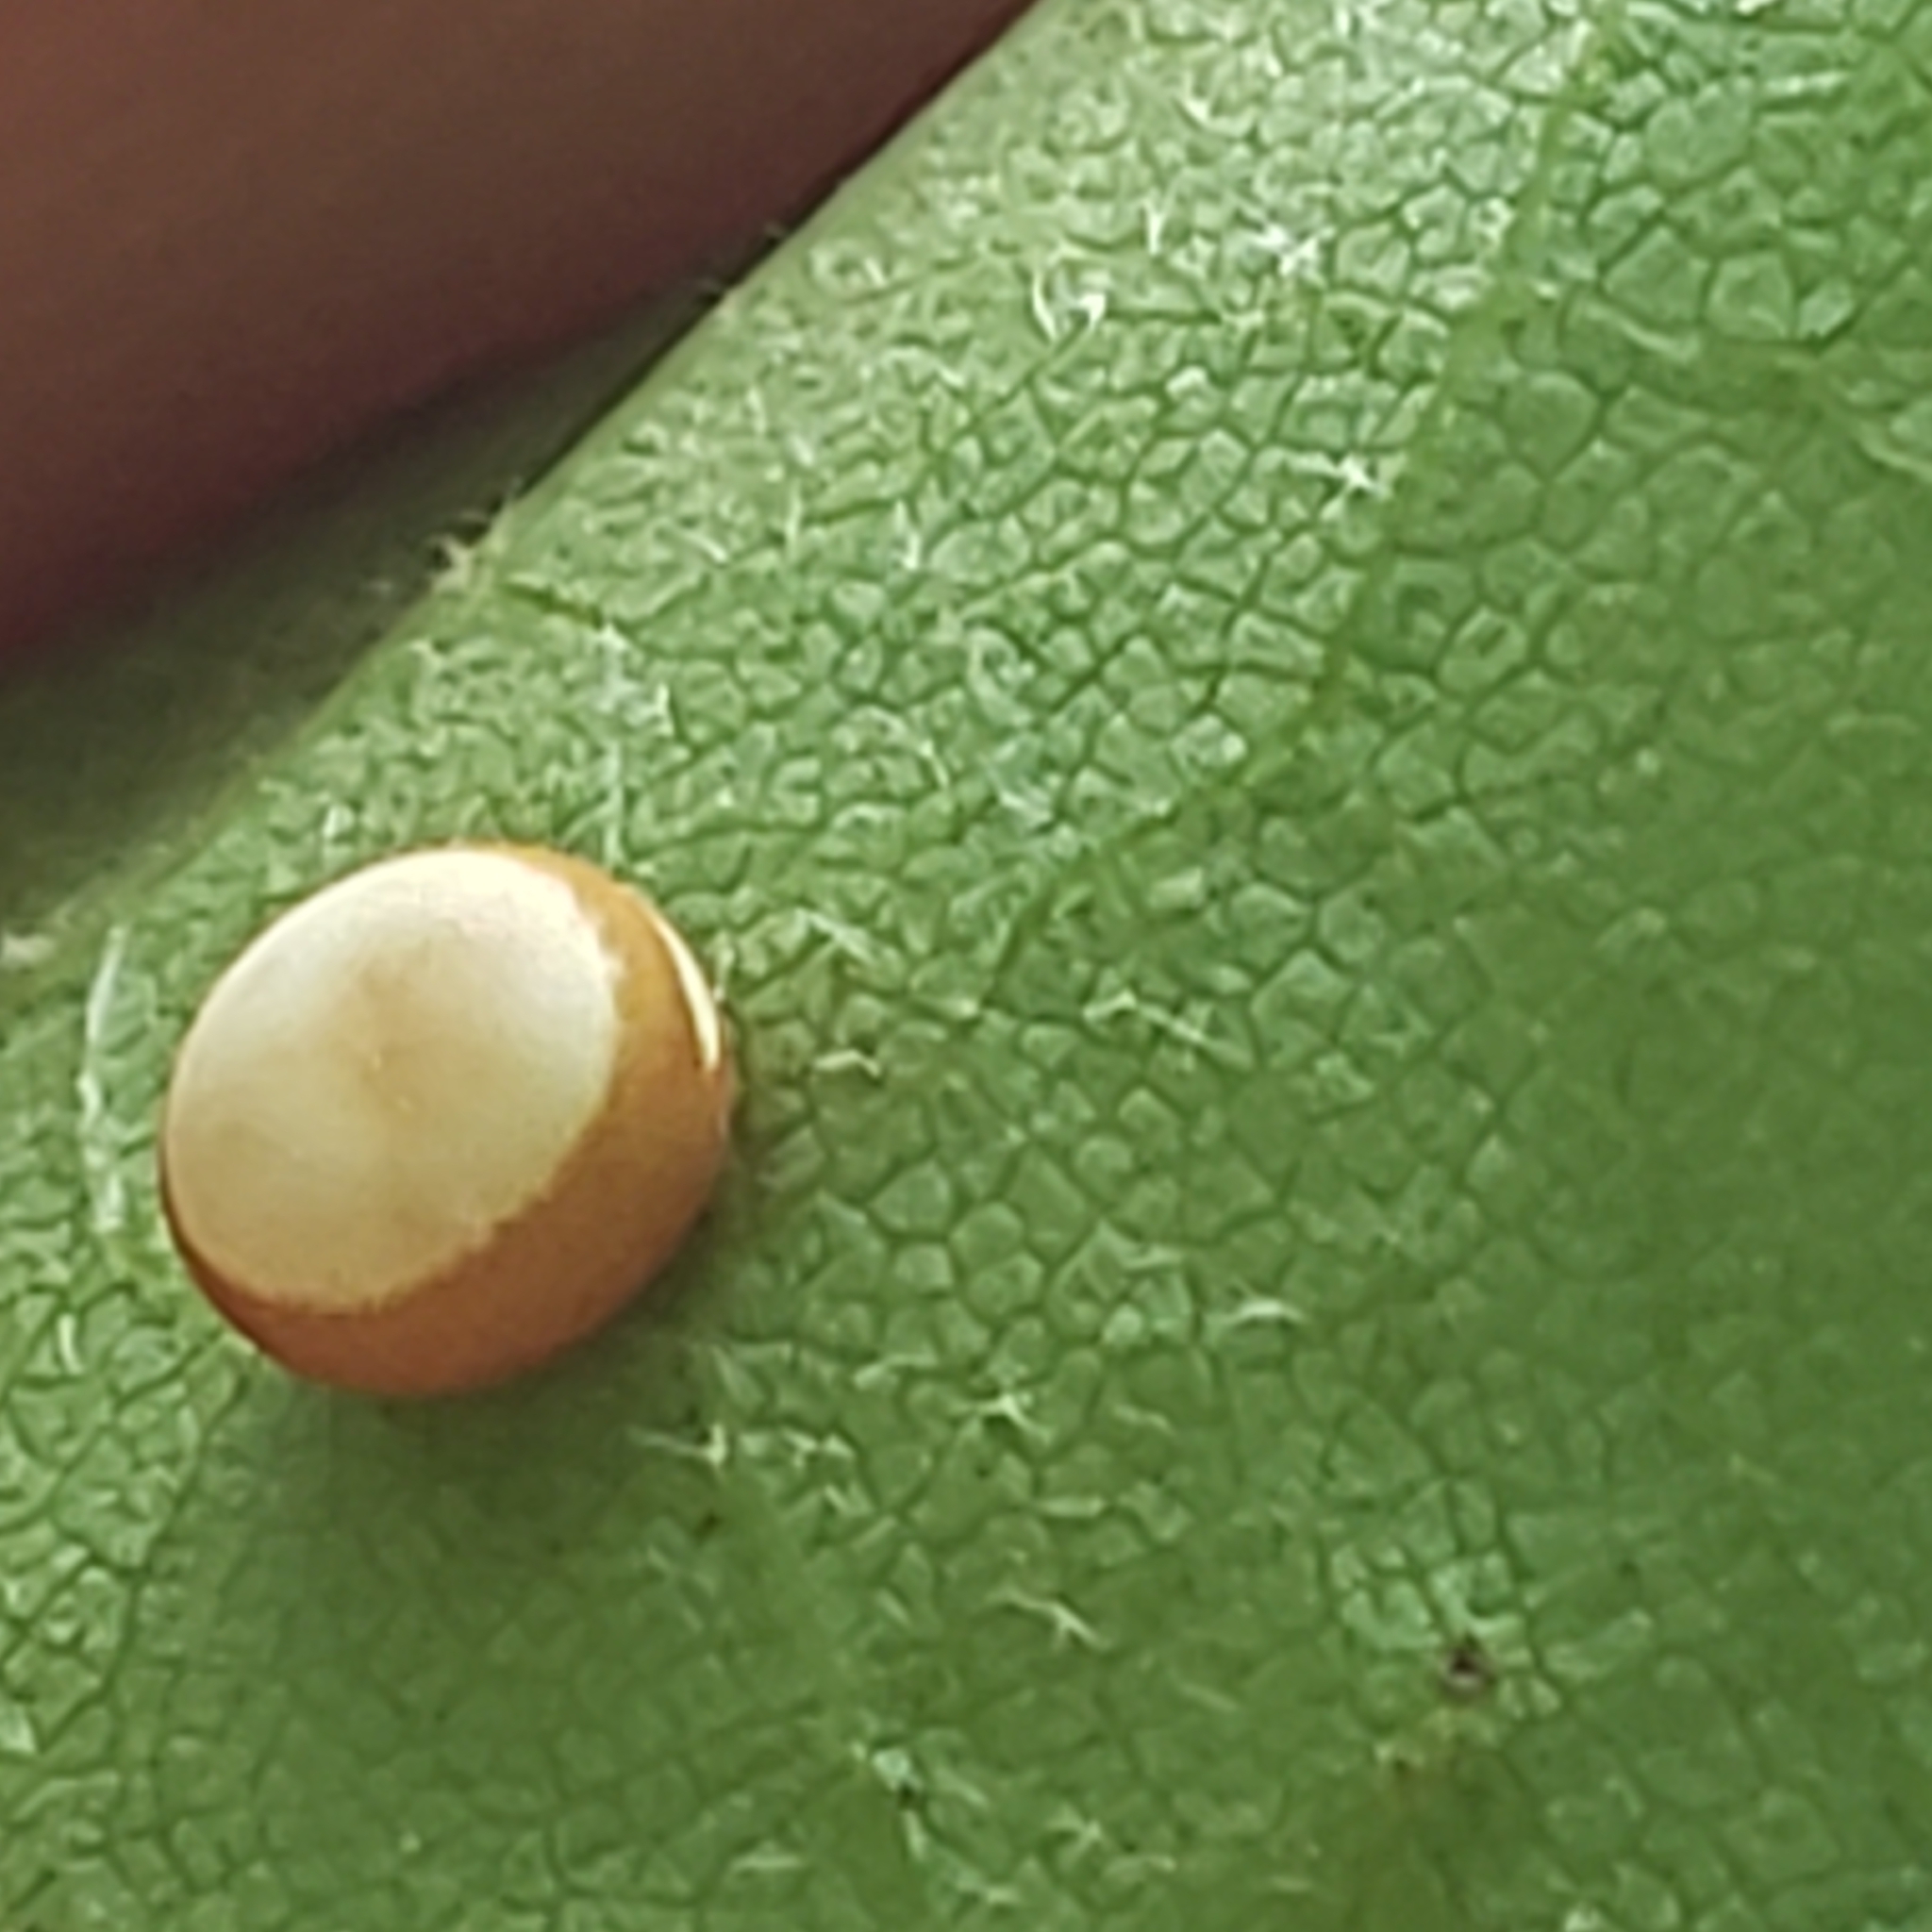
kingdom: Animalia
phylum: Arthropoda
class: Insecta
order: Lepidoptera
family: Saturniidae
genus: Antheraea
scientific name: Antheraea polyphemus
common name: Polyphemus moth
